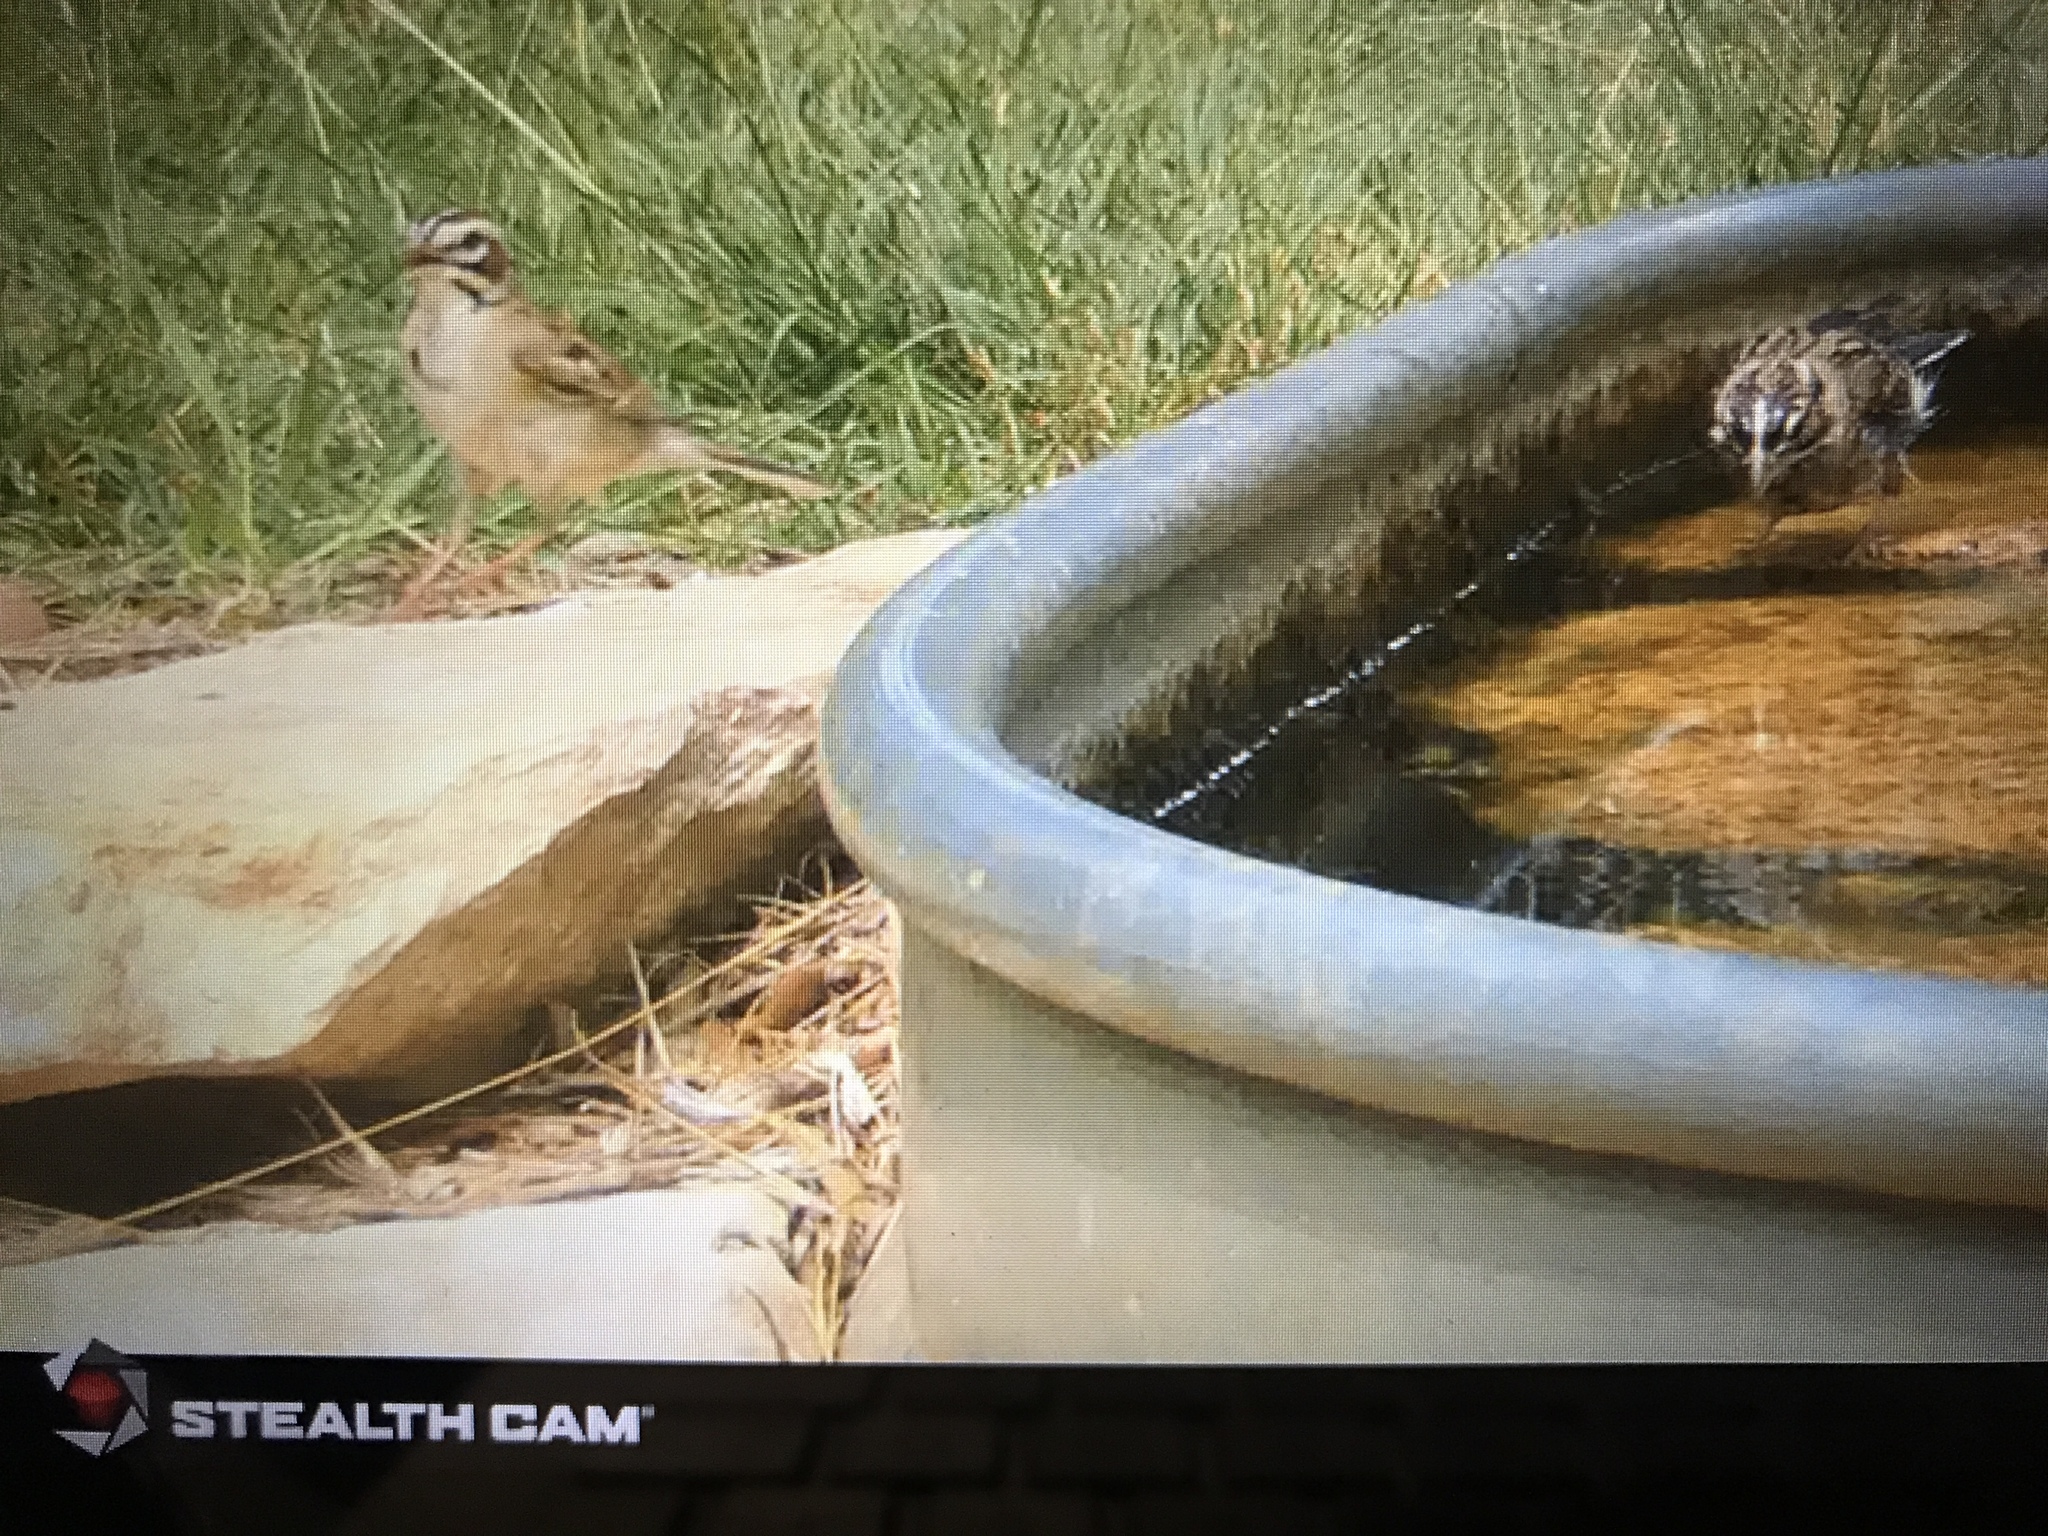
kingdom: Animalia
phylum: Chordata
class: Aves
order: Passeriformes
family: Passerellidae
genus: Chondestes
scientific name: Chondestes grammacus
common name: Lark sparrow
